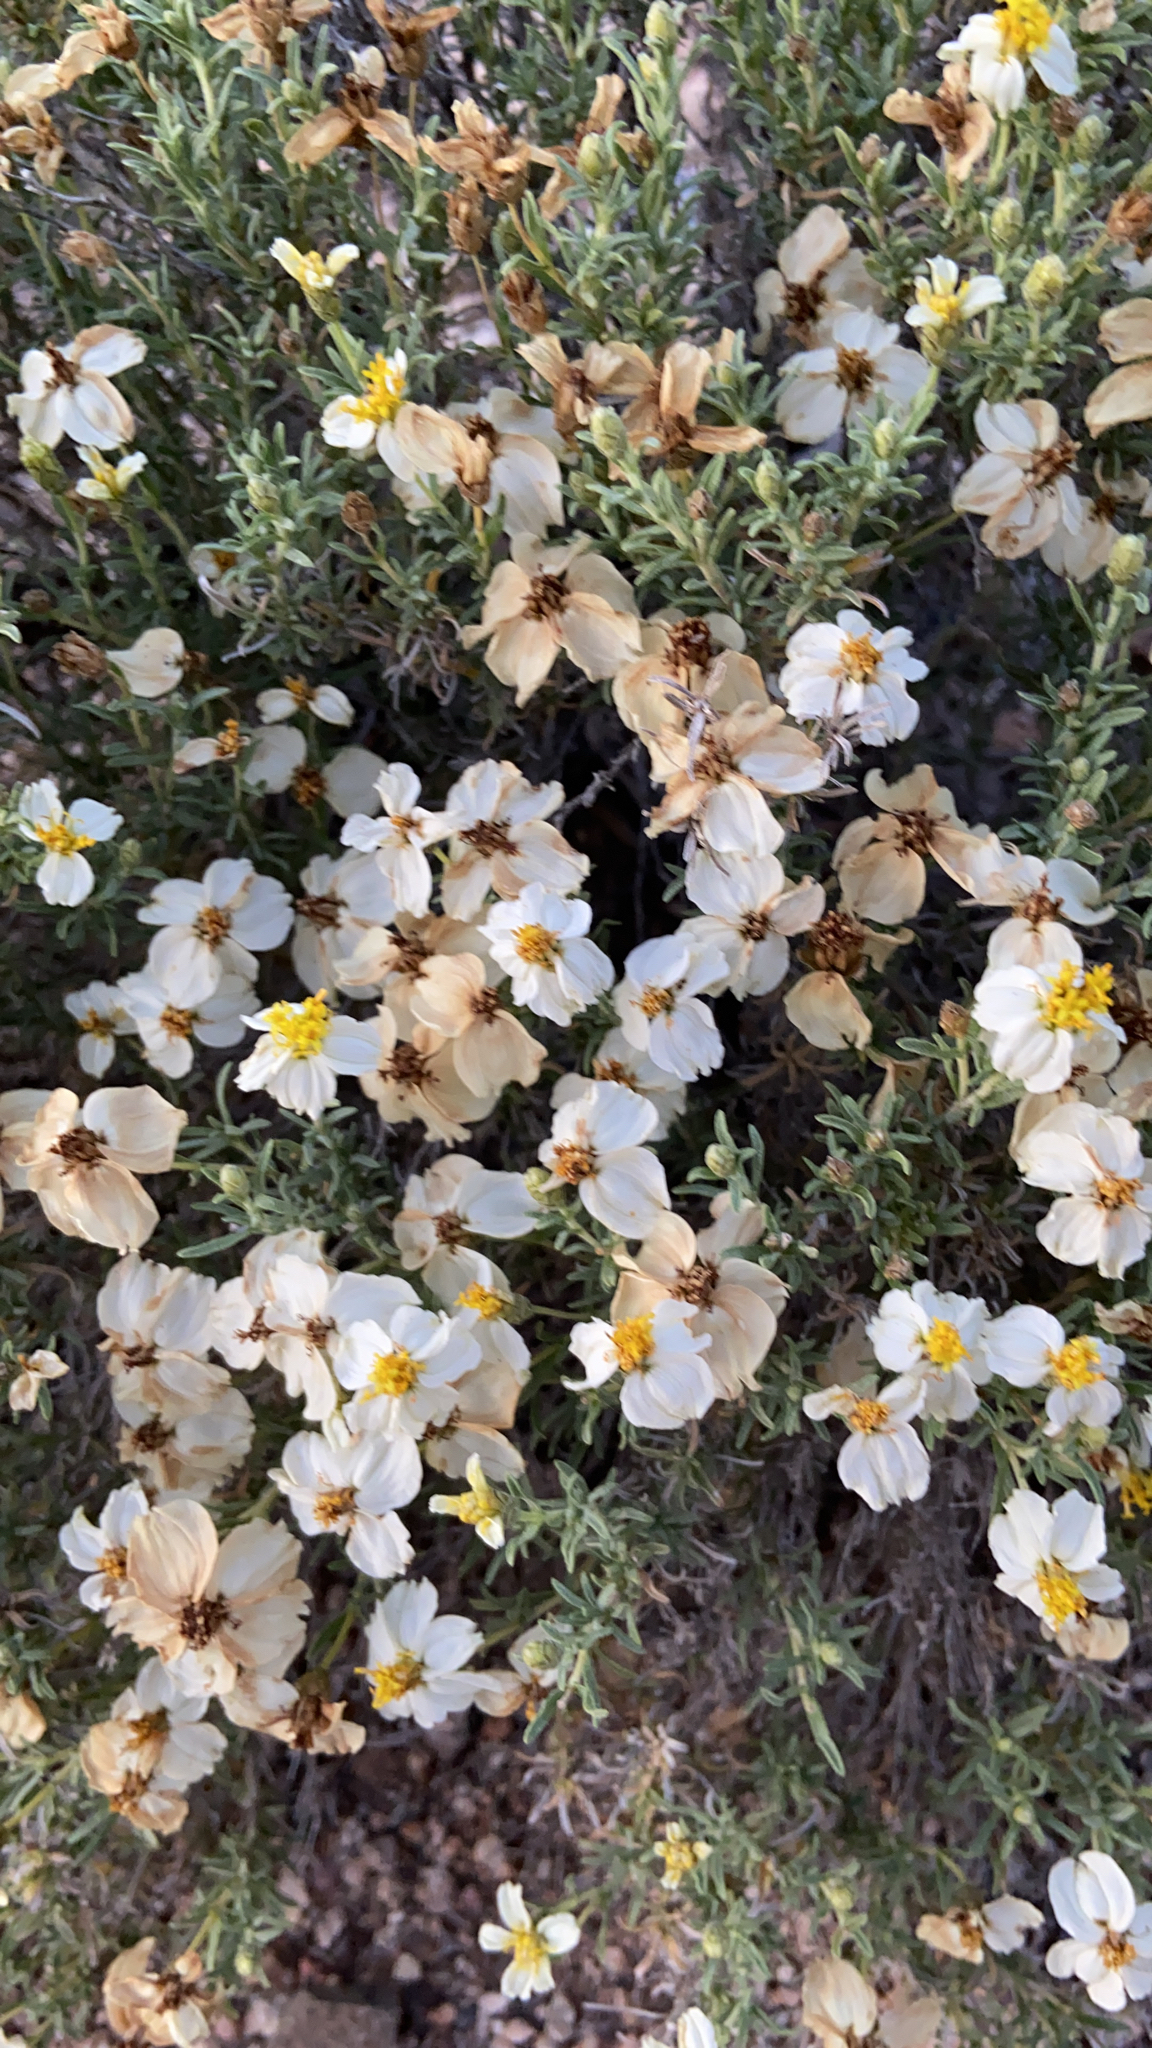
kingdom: Plantae
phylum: Tracheophyta
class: Magnoliopsida
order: Asterales
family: Asteraceae
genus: Zinnia
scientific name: Zinnia acerosa
